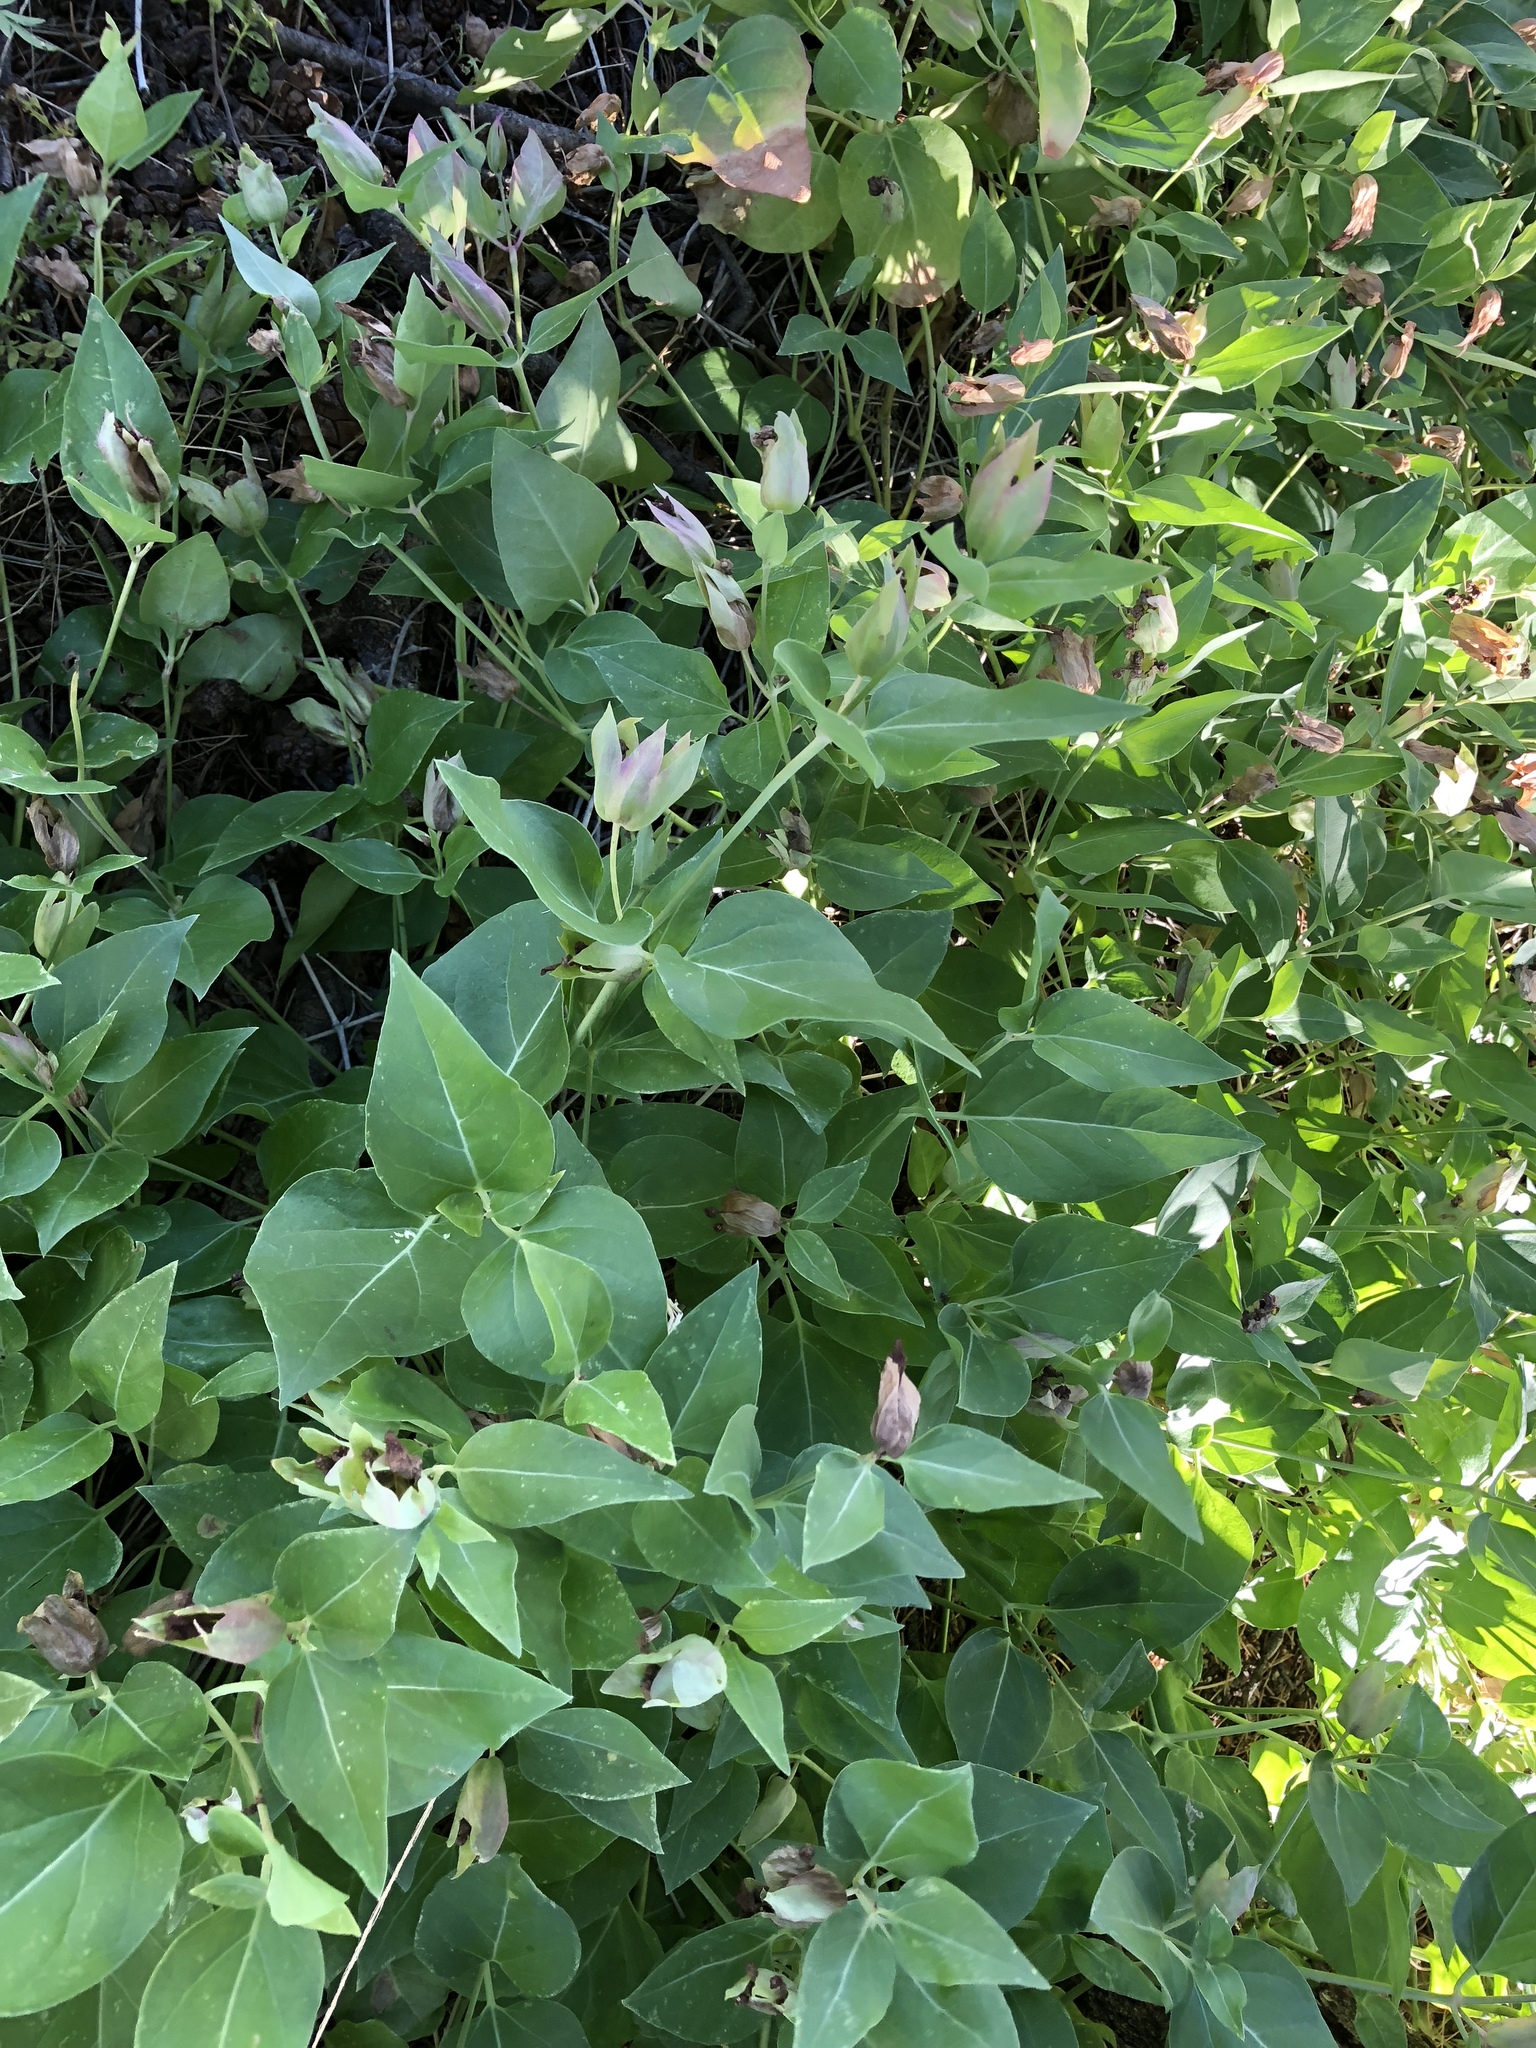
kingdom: Plantae
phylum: Tracheophyta
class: Magnoliopsida
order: Caryophyllales
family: Nyctaginaceae
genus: Mirabilis
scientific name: Mirabilis multiflora
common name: Froebel's four-o'clock
